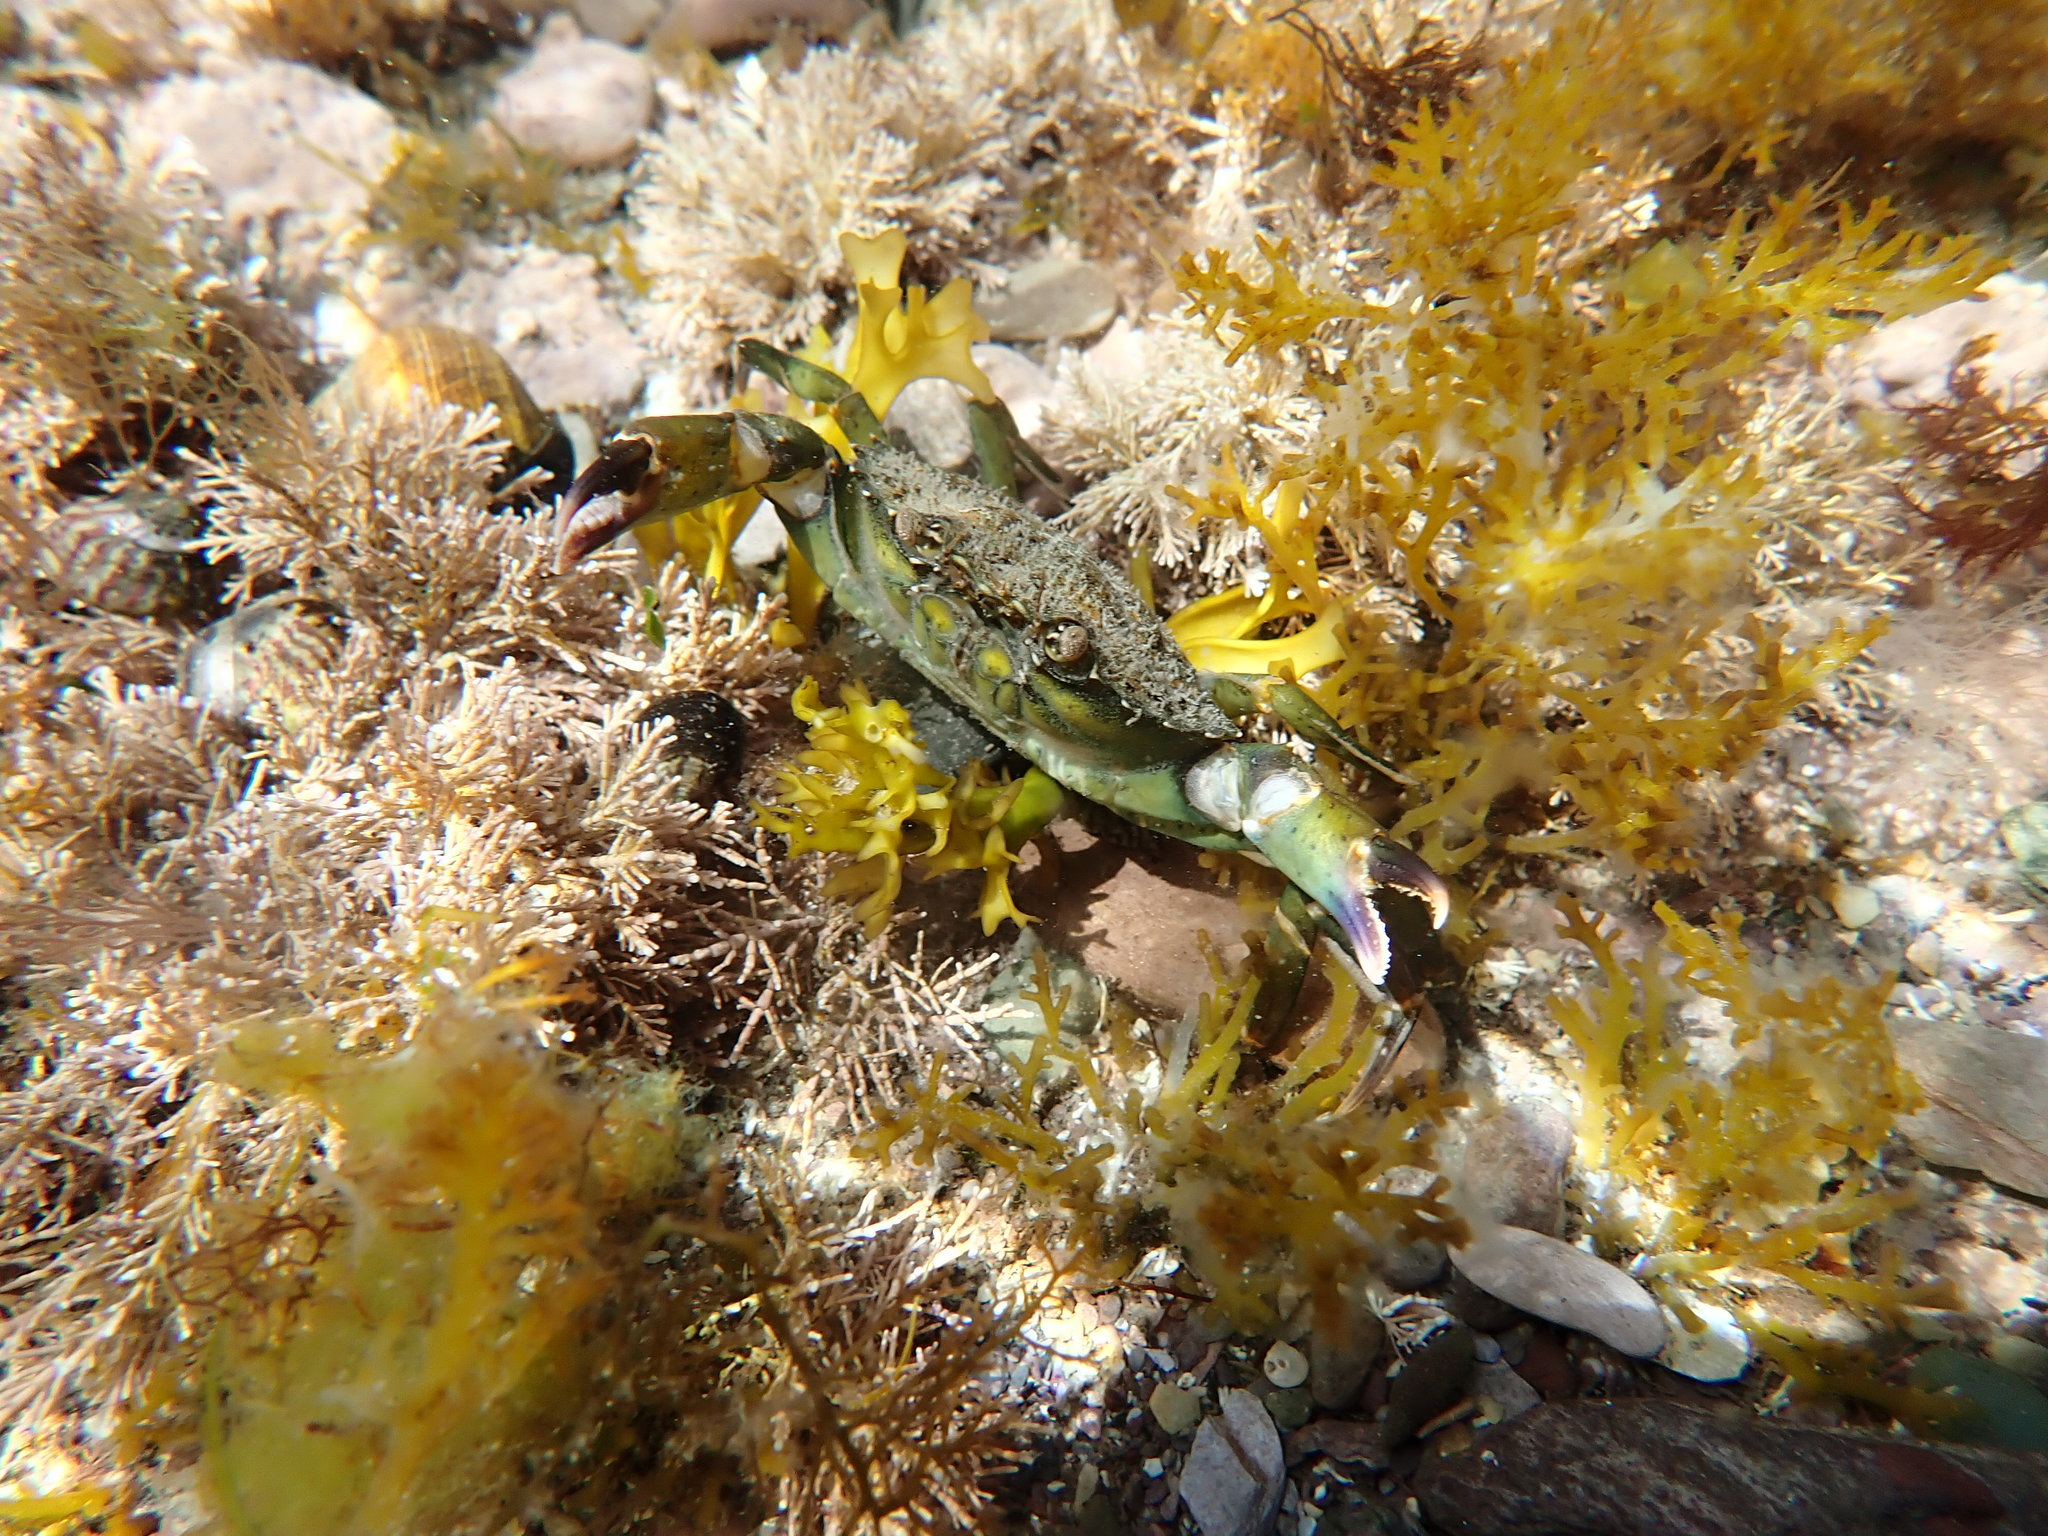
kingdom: Animalia
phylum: Arthropoda
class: Malacostraca
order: Decapoda
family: Carcinidae
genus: Carcinus
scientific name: Carcinus maenas
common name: European green crab
